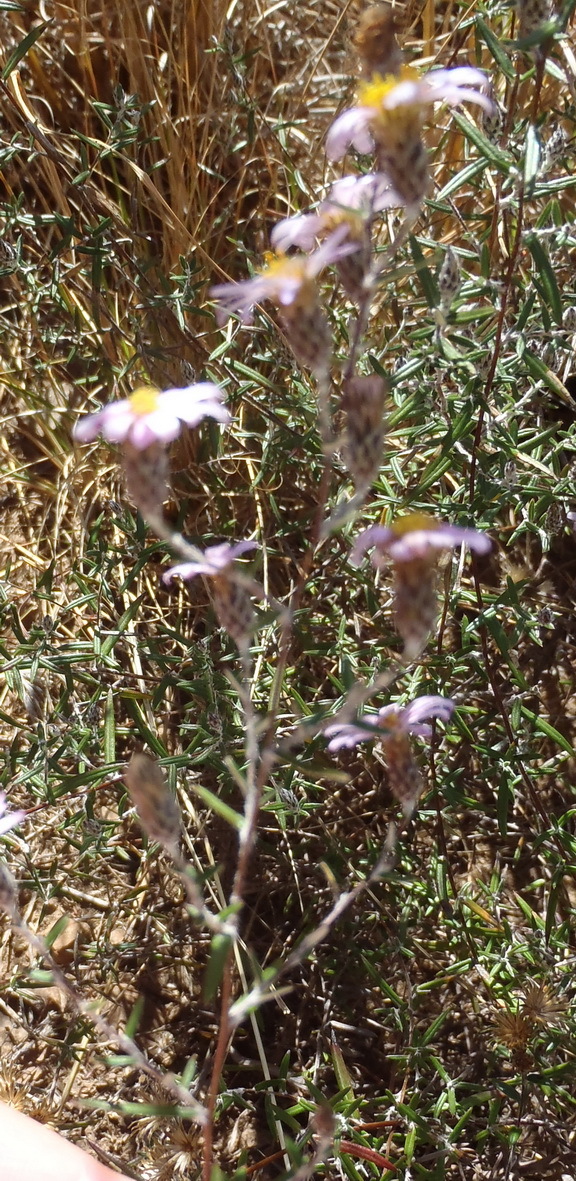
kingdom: Plantae
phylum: Tracheophyta
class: Magnoliopsida
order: Asterales
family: Asteraceae
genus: Athrixia
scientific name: Athrixia elata
